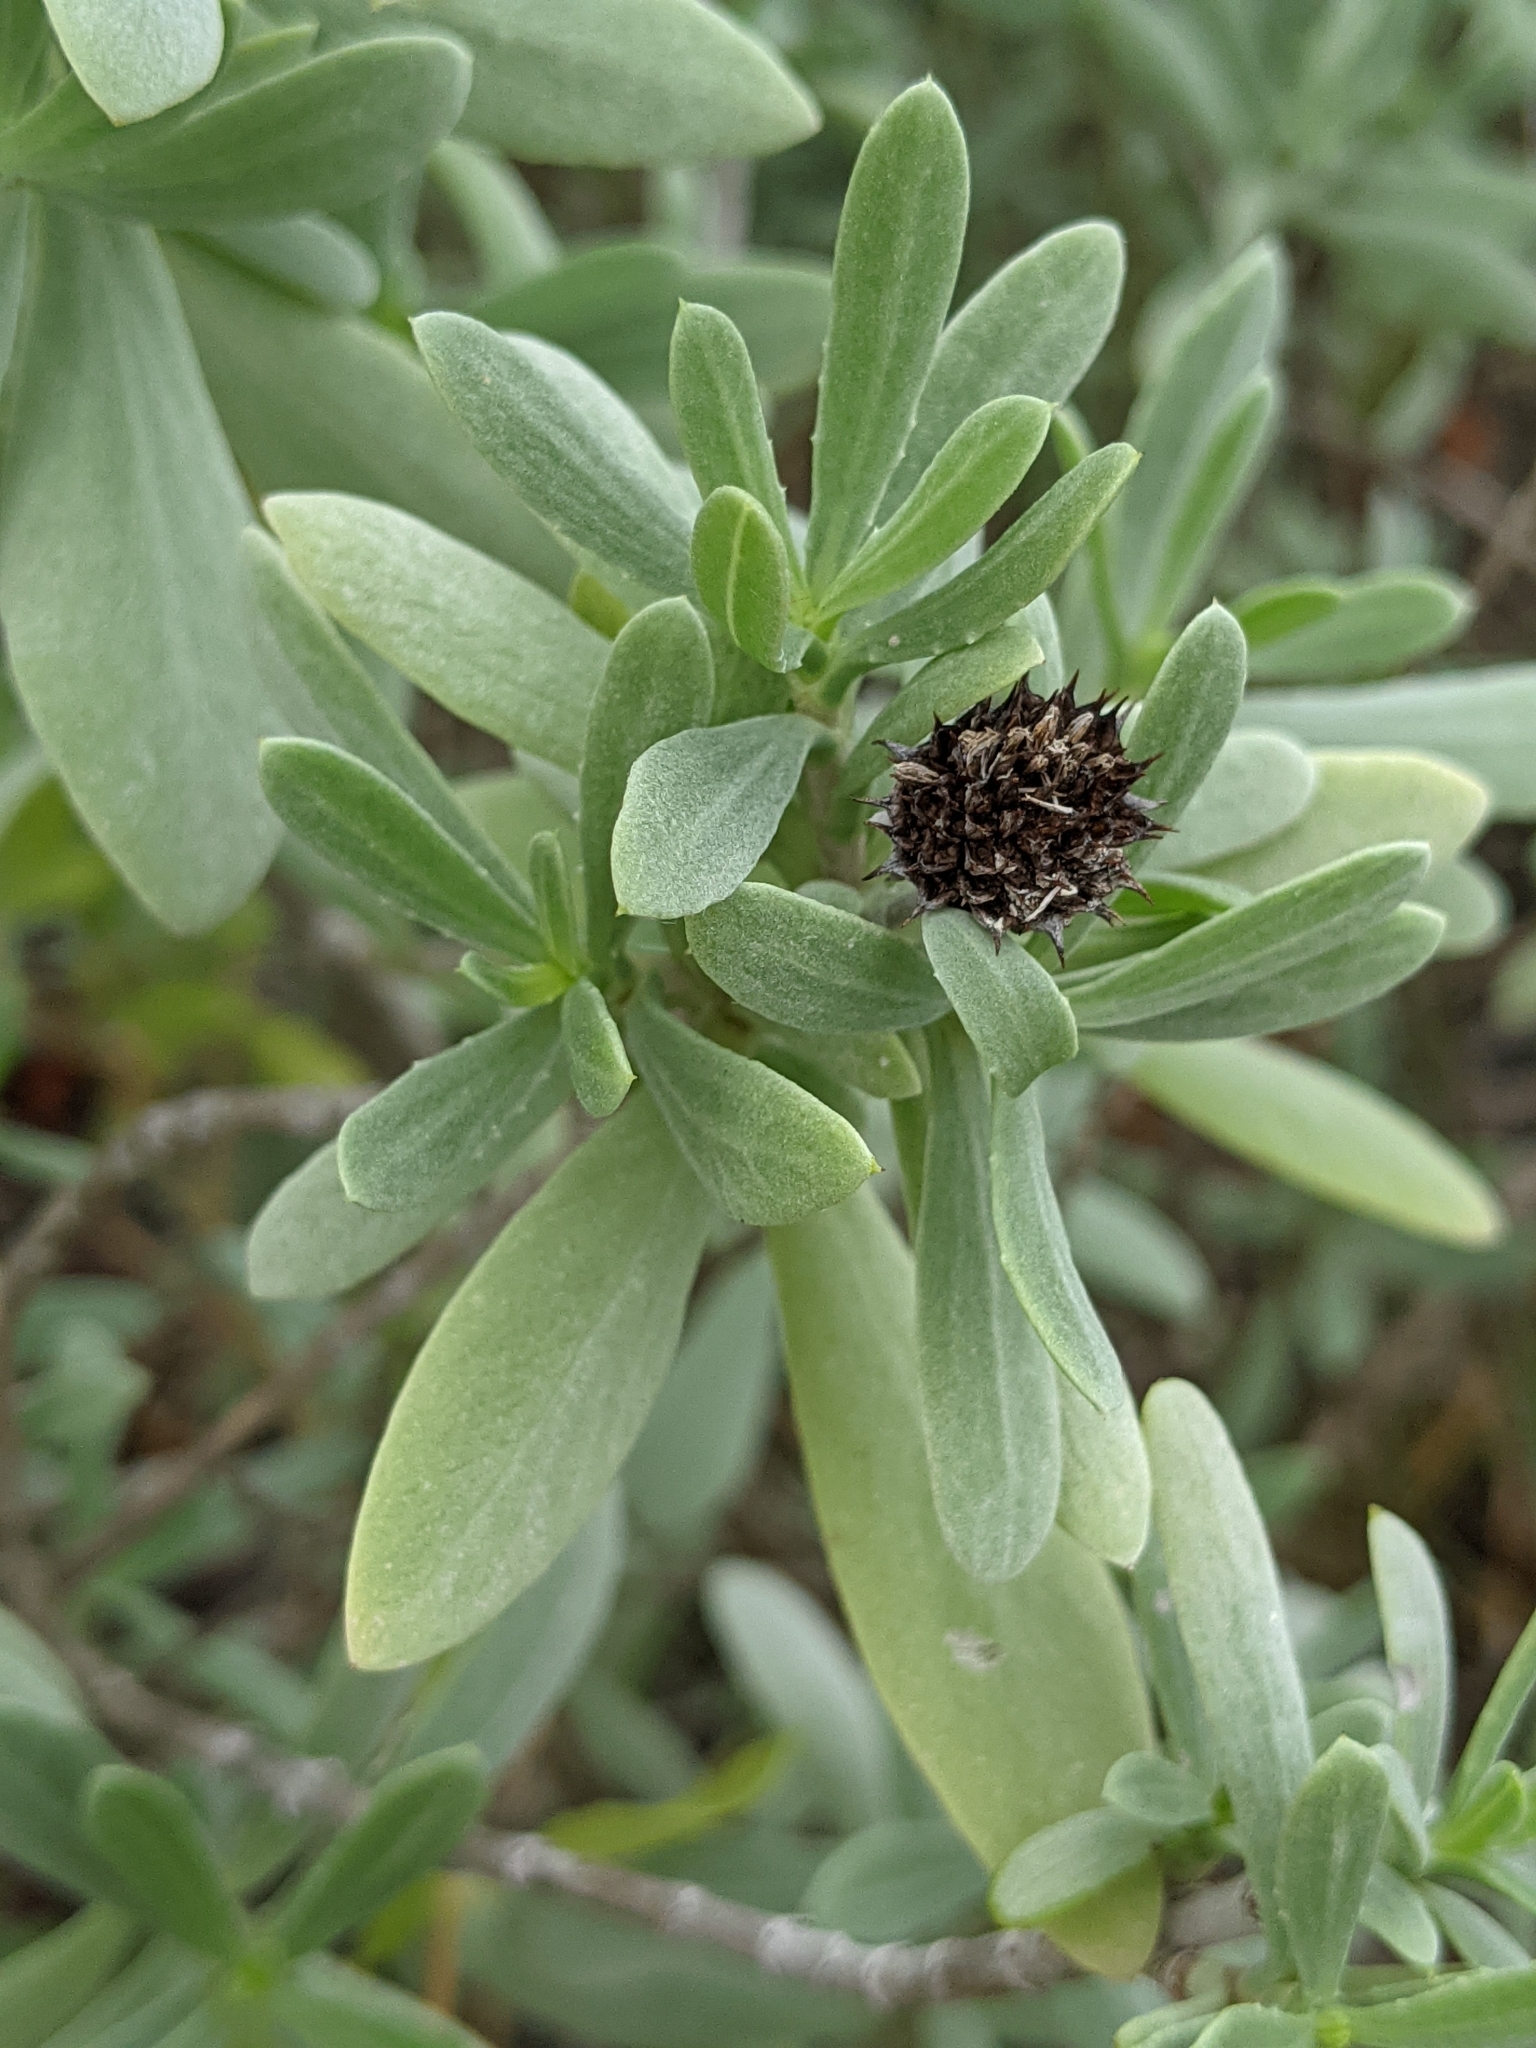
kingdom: Plantae
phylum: Tracheophyta
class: Magnoliopsida
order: Asterales
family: Asteraceae
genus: Borrichia
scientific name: Borrichia frutescens
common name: Sea oxeye
